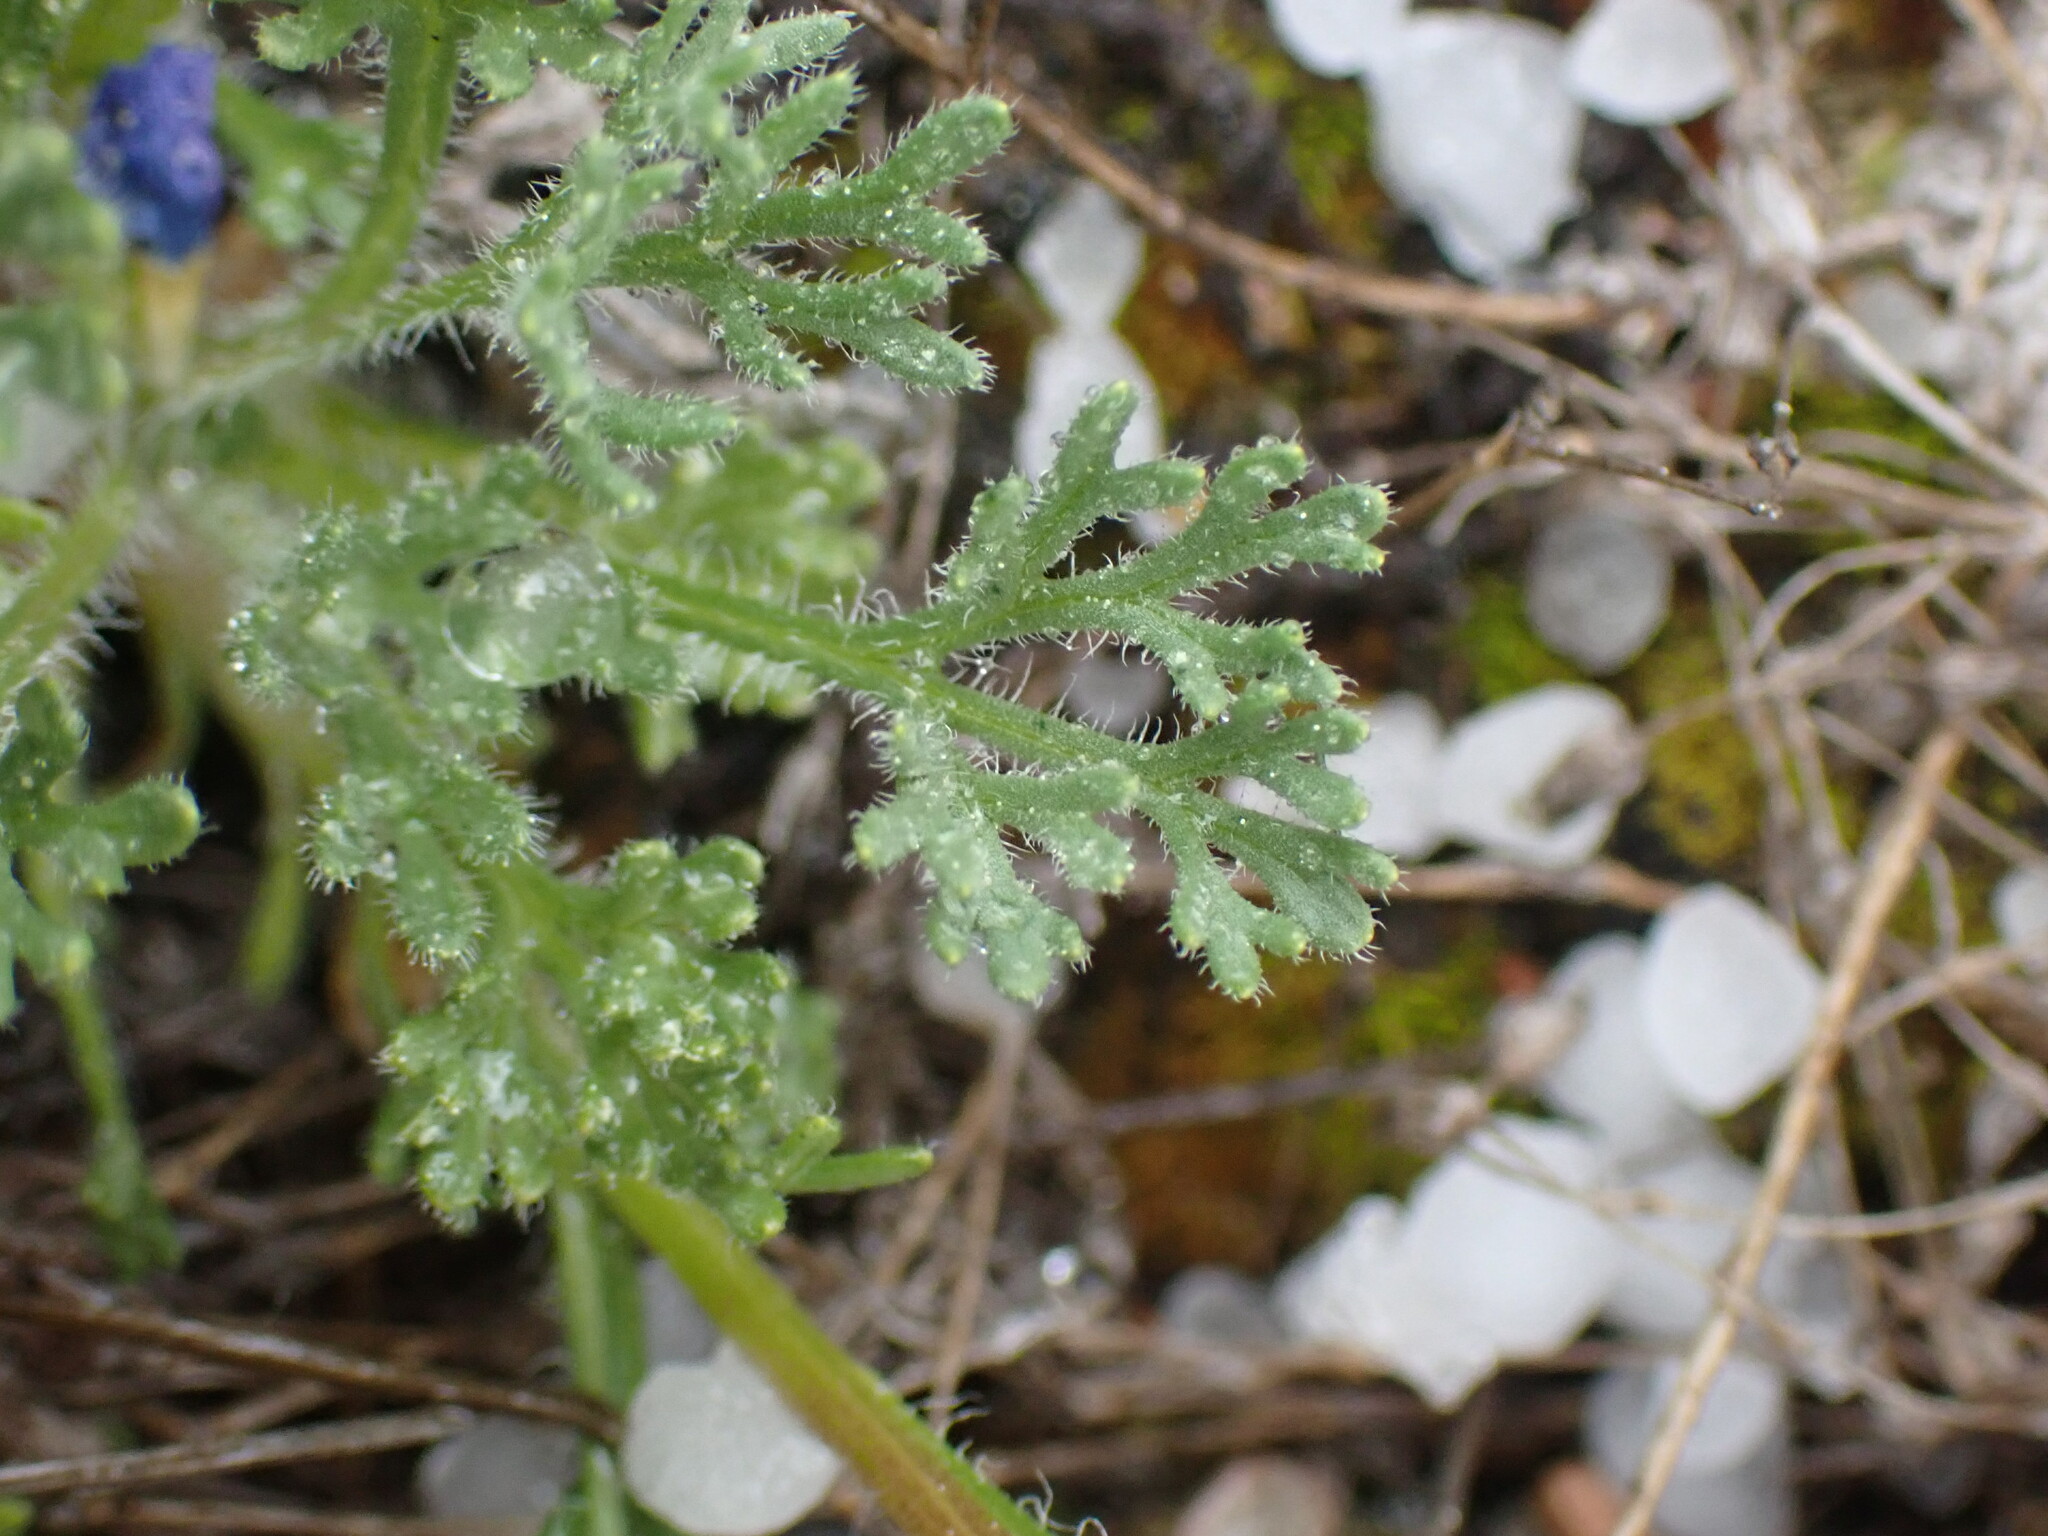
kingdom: Plantae
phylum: Tracheophyta
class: Magnoliopsida
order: Asterales
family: Asteraceae
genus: Erigeron
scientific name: Erigeron compositus
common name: Dwarf mountain fleabane
